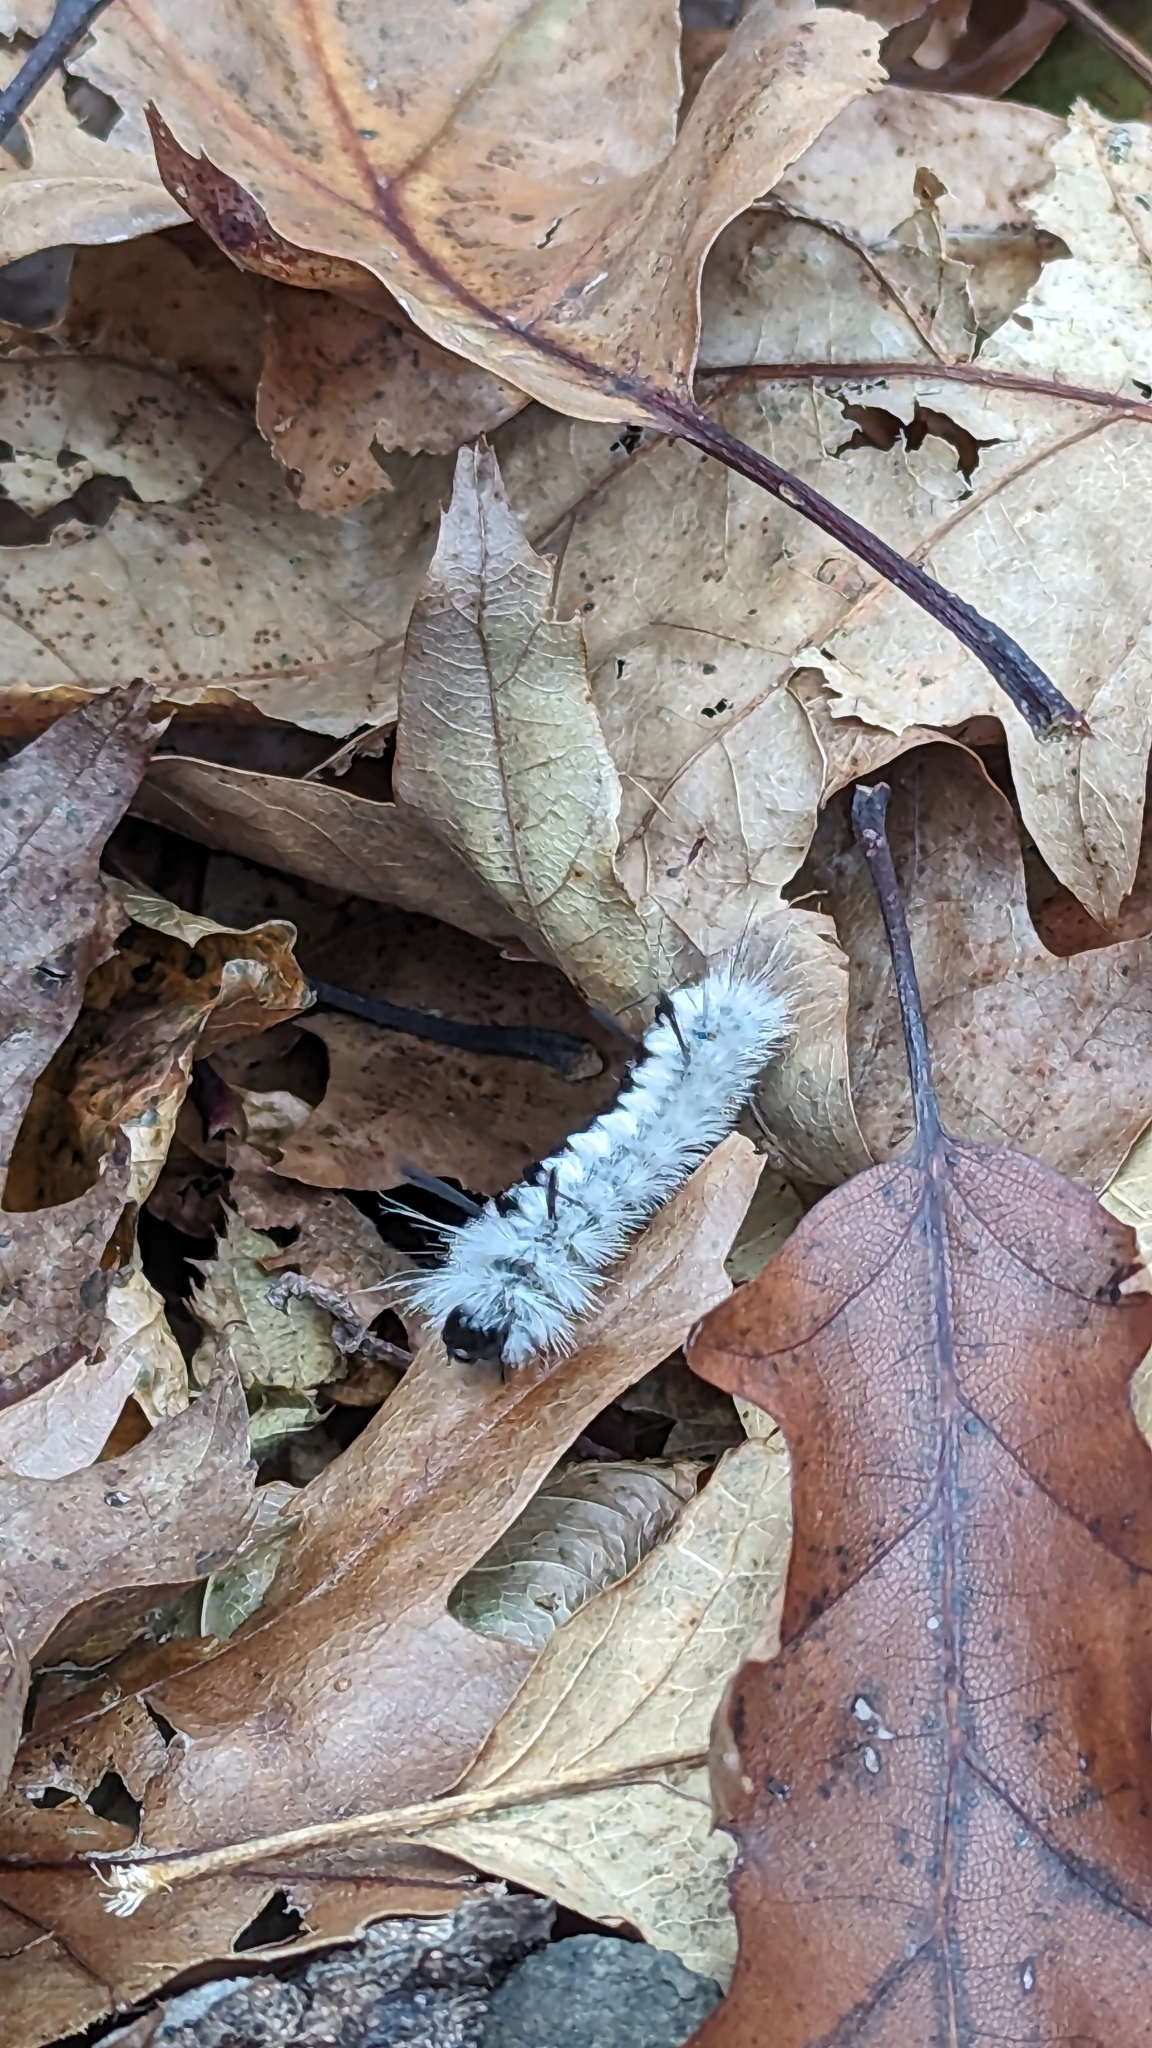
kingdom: Animalia
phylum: Arthropoda
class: Insecta
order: Lepidoptera
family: Erebidae
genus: Lophocampa
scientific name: Lophocampa caryae
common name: Hickory tussock moth
